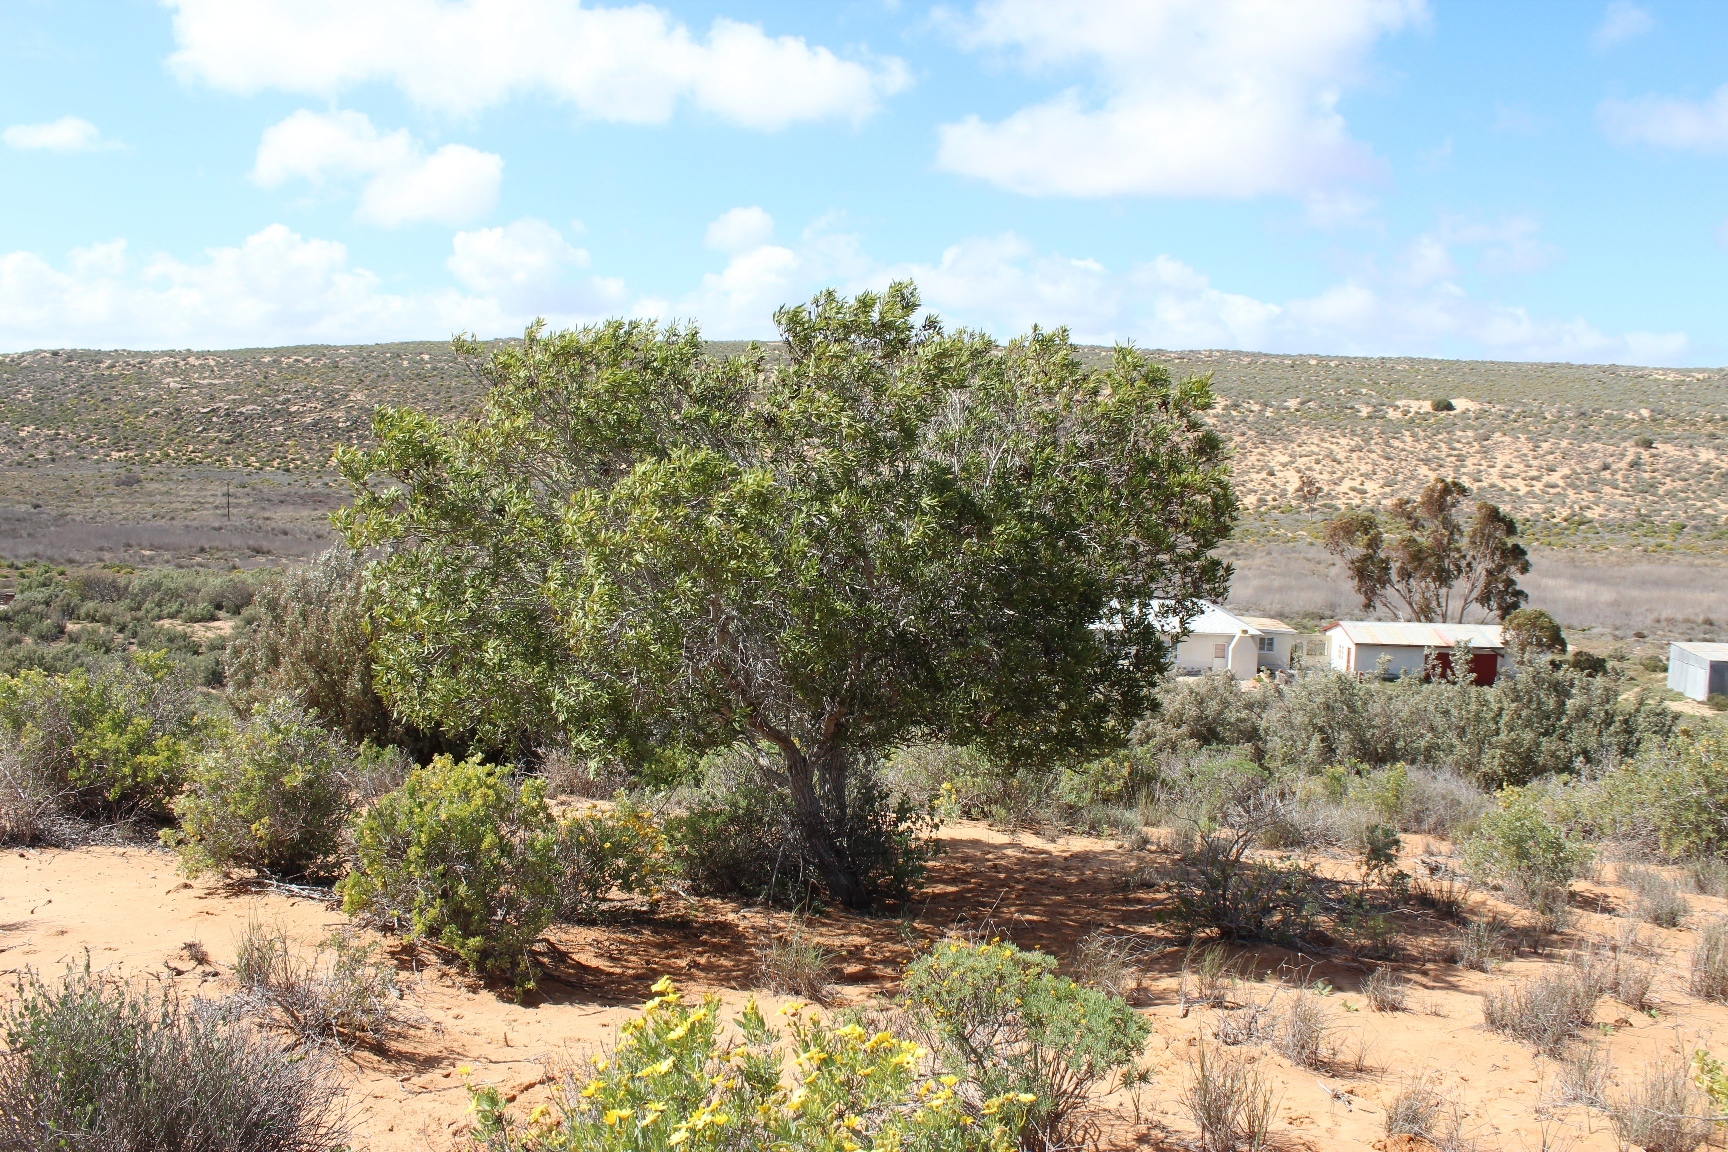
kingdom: Plantae
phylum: Tracheophyta
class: Magnoliopsida
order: Fabales
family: Fabaceae
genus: Acacia
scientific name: Acacia cyclops
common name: Coastal wattle
